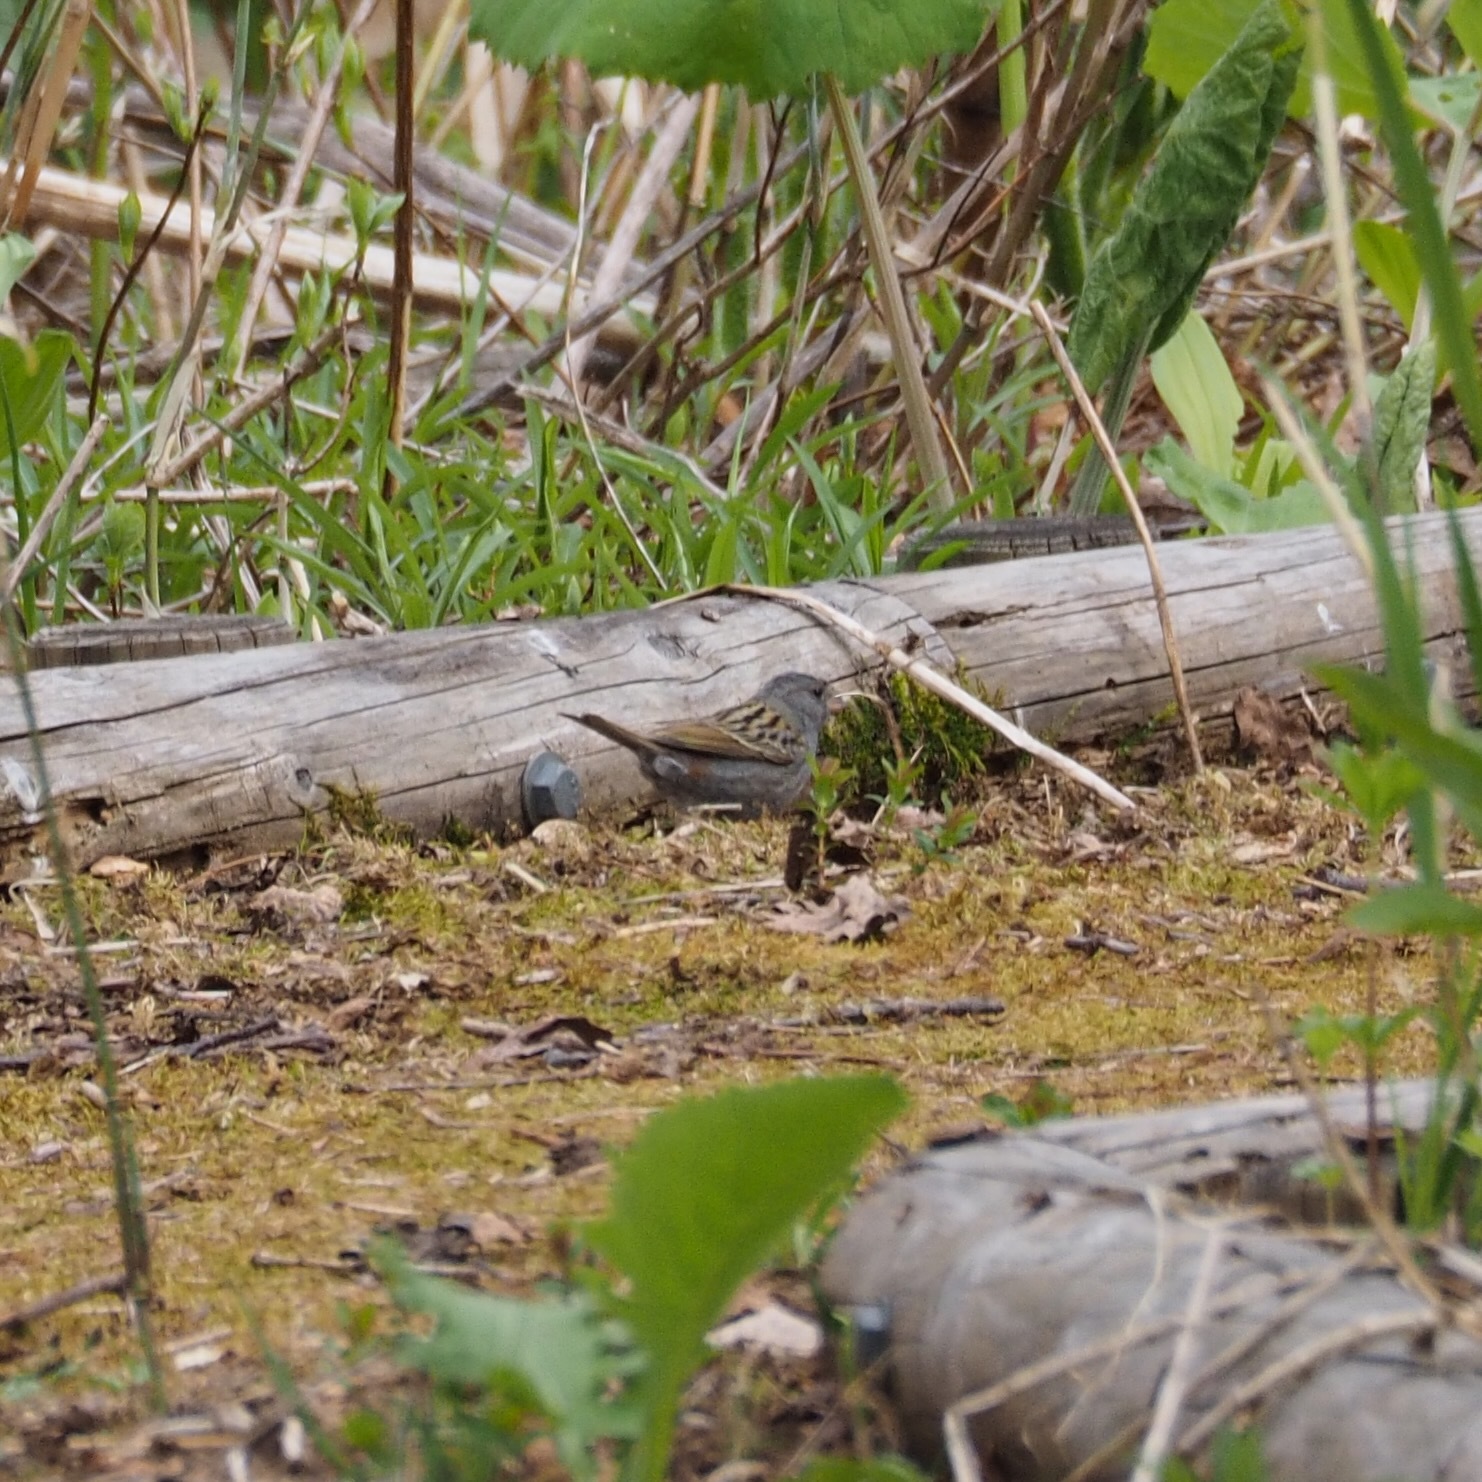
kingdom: Animalia
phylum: Chordata
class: Aves
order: Passeriformes
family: Emberizidae
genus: Emberiza
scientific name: Emberiza variabilis
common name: Gray bunting
